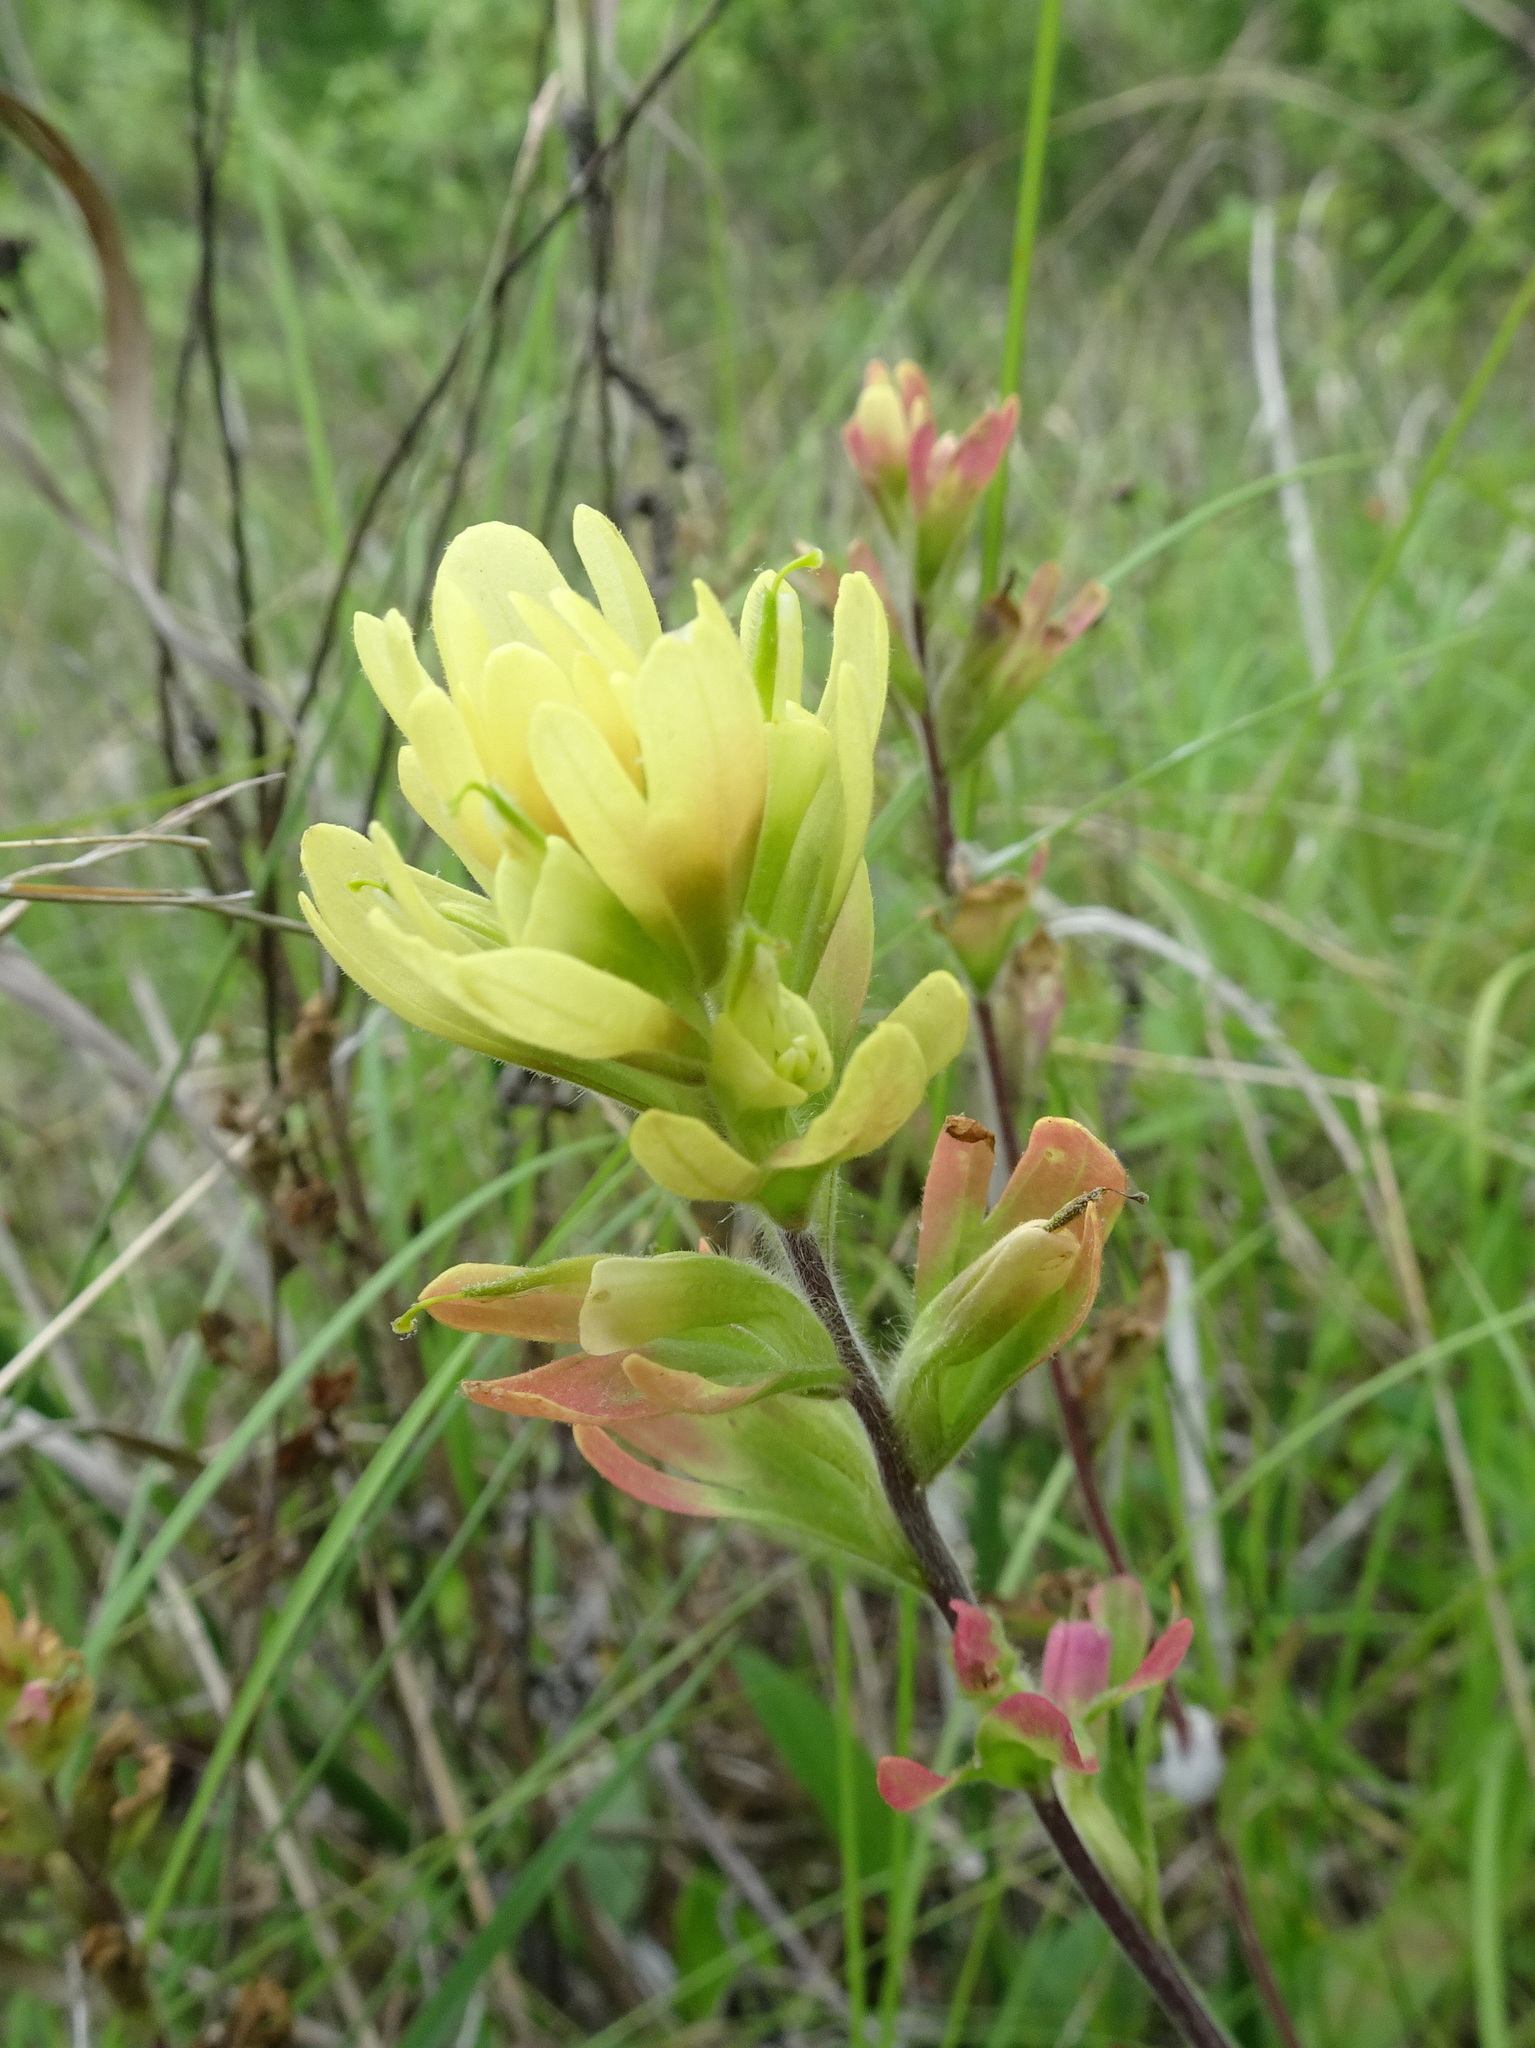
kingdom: Plantae
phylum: Tracheophyta
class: Magnoliopsida
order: Lamiales
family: Orobanchaceae
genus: Castilleja
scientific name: Castilleja coccinea
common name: Scarlet paintbrush
